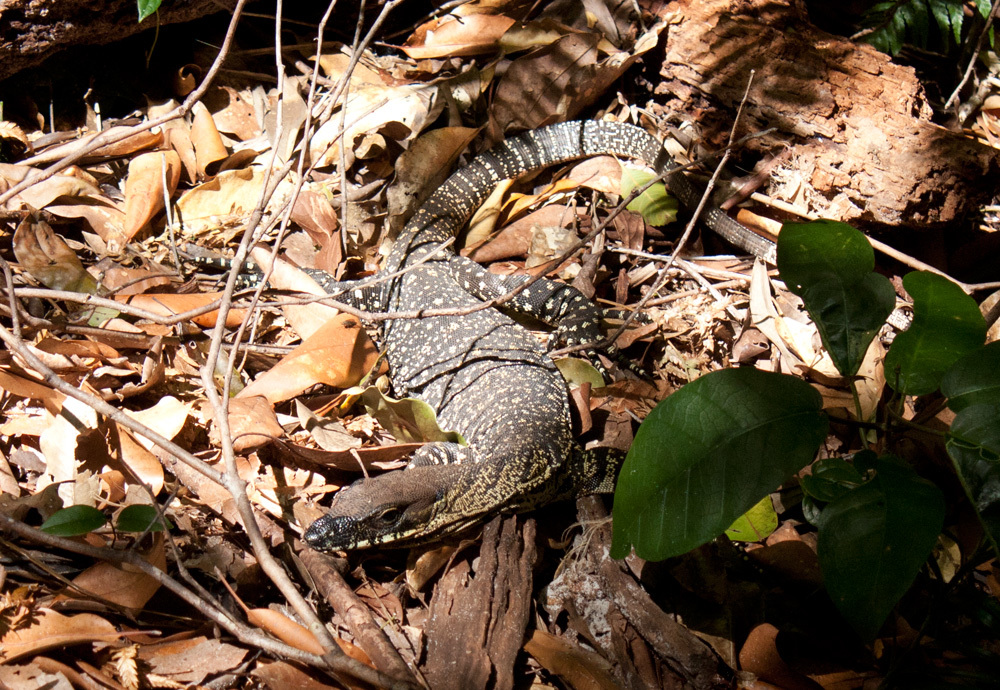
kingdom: Animalia
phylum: Chordata
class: Squamata
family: Varanidae
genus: Varanus
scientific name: Varanus varius
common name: Lace monitor
